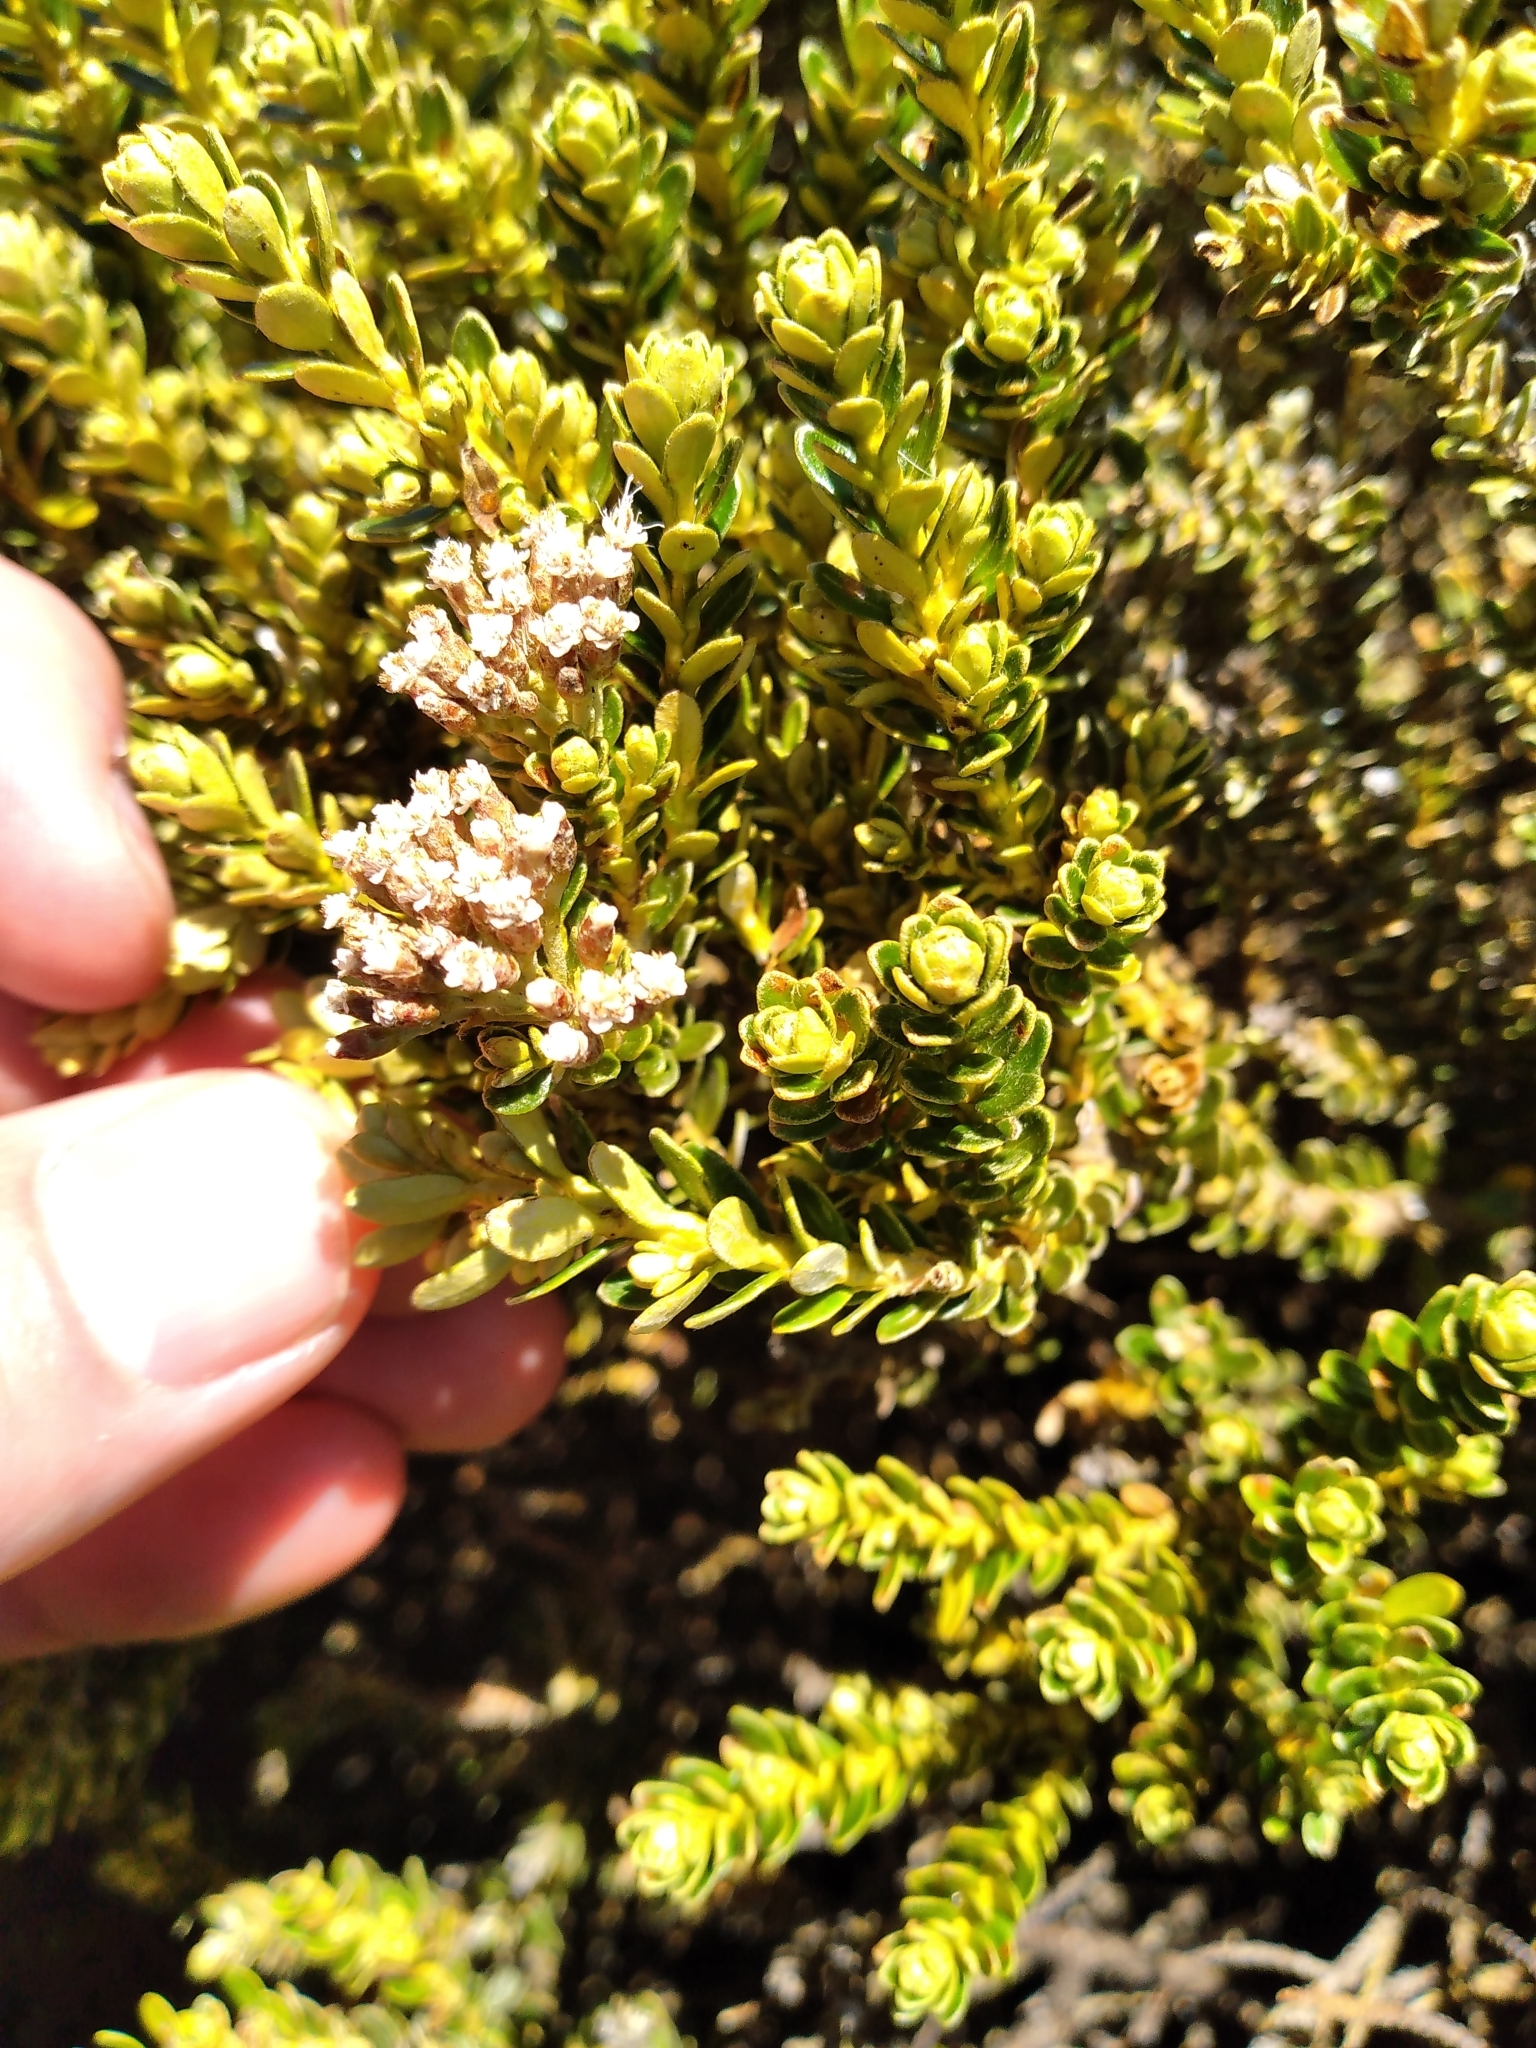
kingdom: Plantae
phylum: Tracheophyta
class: Magnoliopsida
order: Asterales
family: Asteraceae
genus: Ozothamnus
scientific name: Ozothamnus leptophyllus
